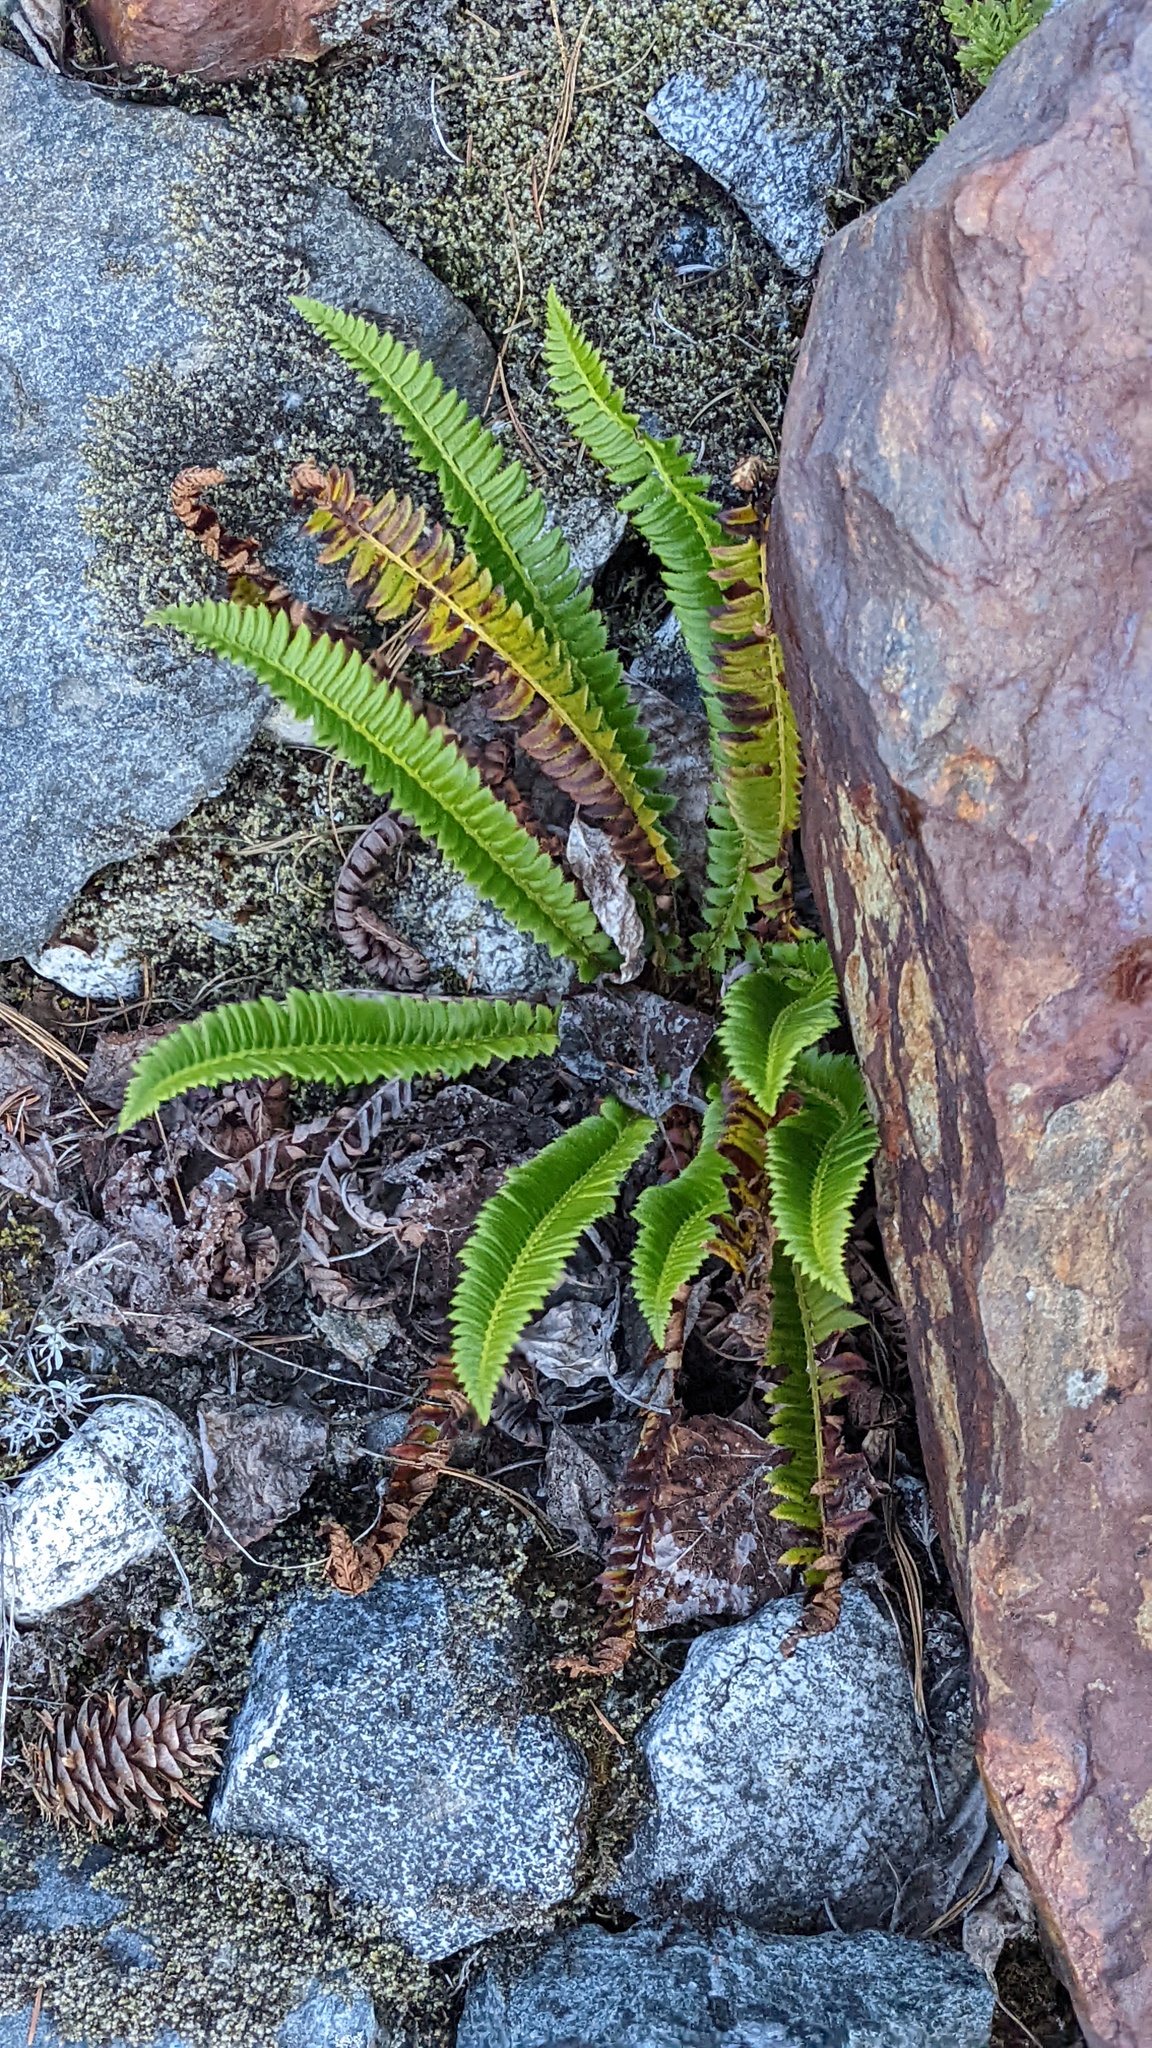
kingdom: Plantae
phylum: Tracheophyta
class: Polypodiopsida
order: Polypodiales
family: Dryopteridaceae
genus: Polystichum
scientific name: Polystichum lonchitis
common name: Holly fern
